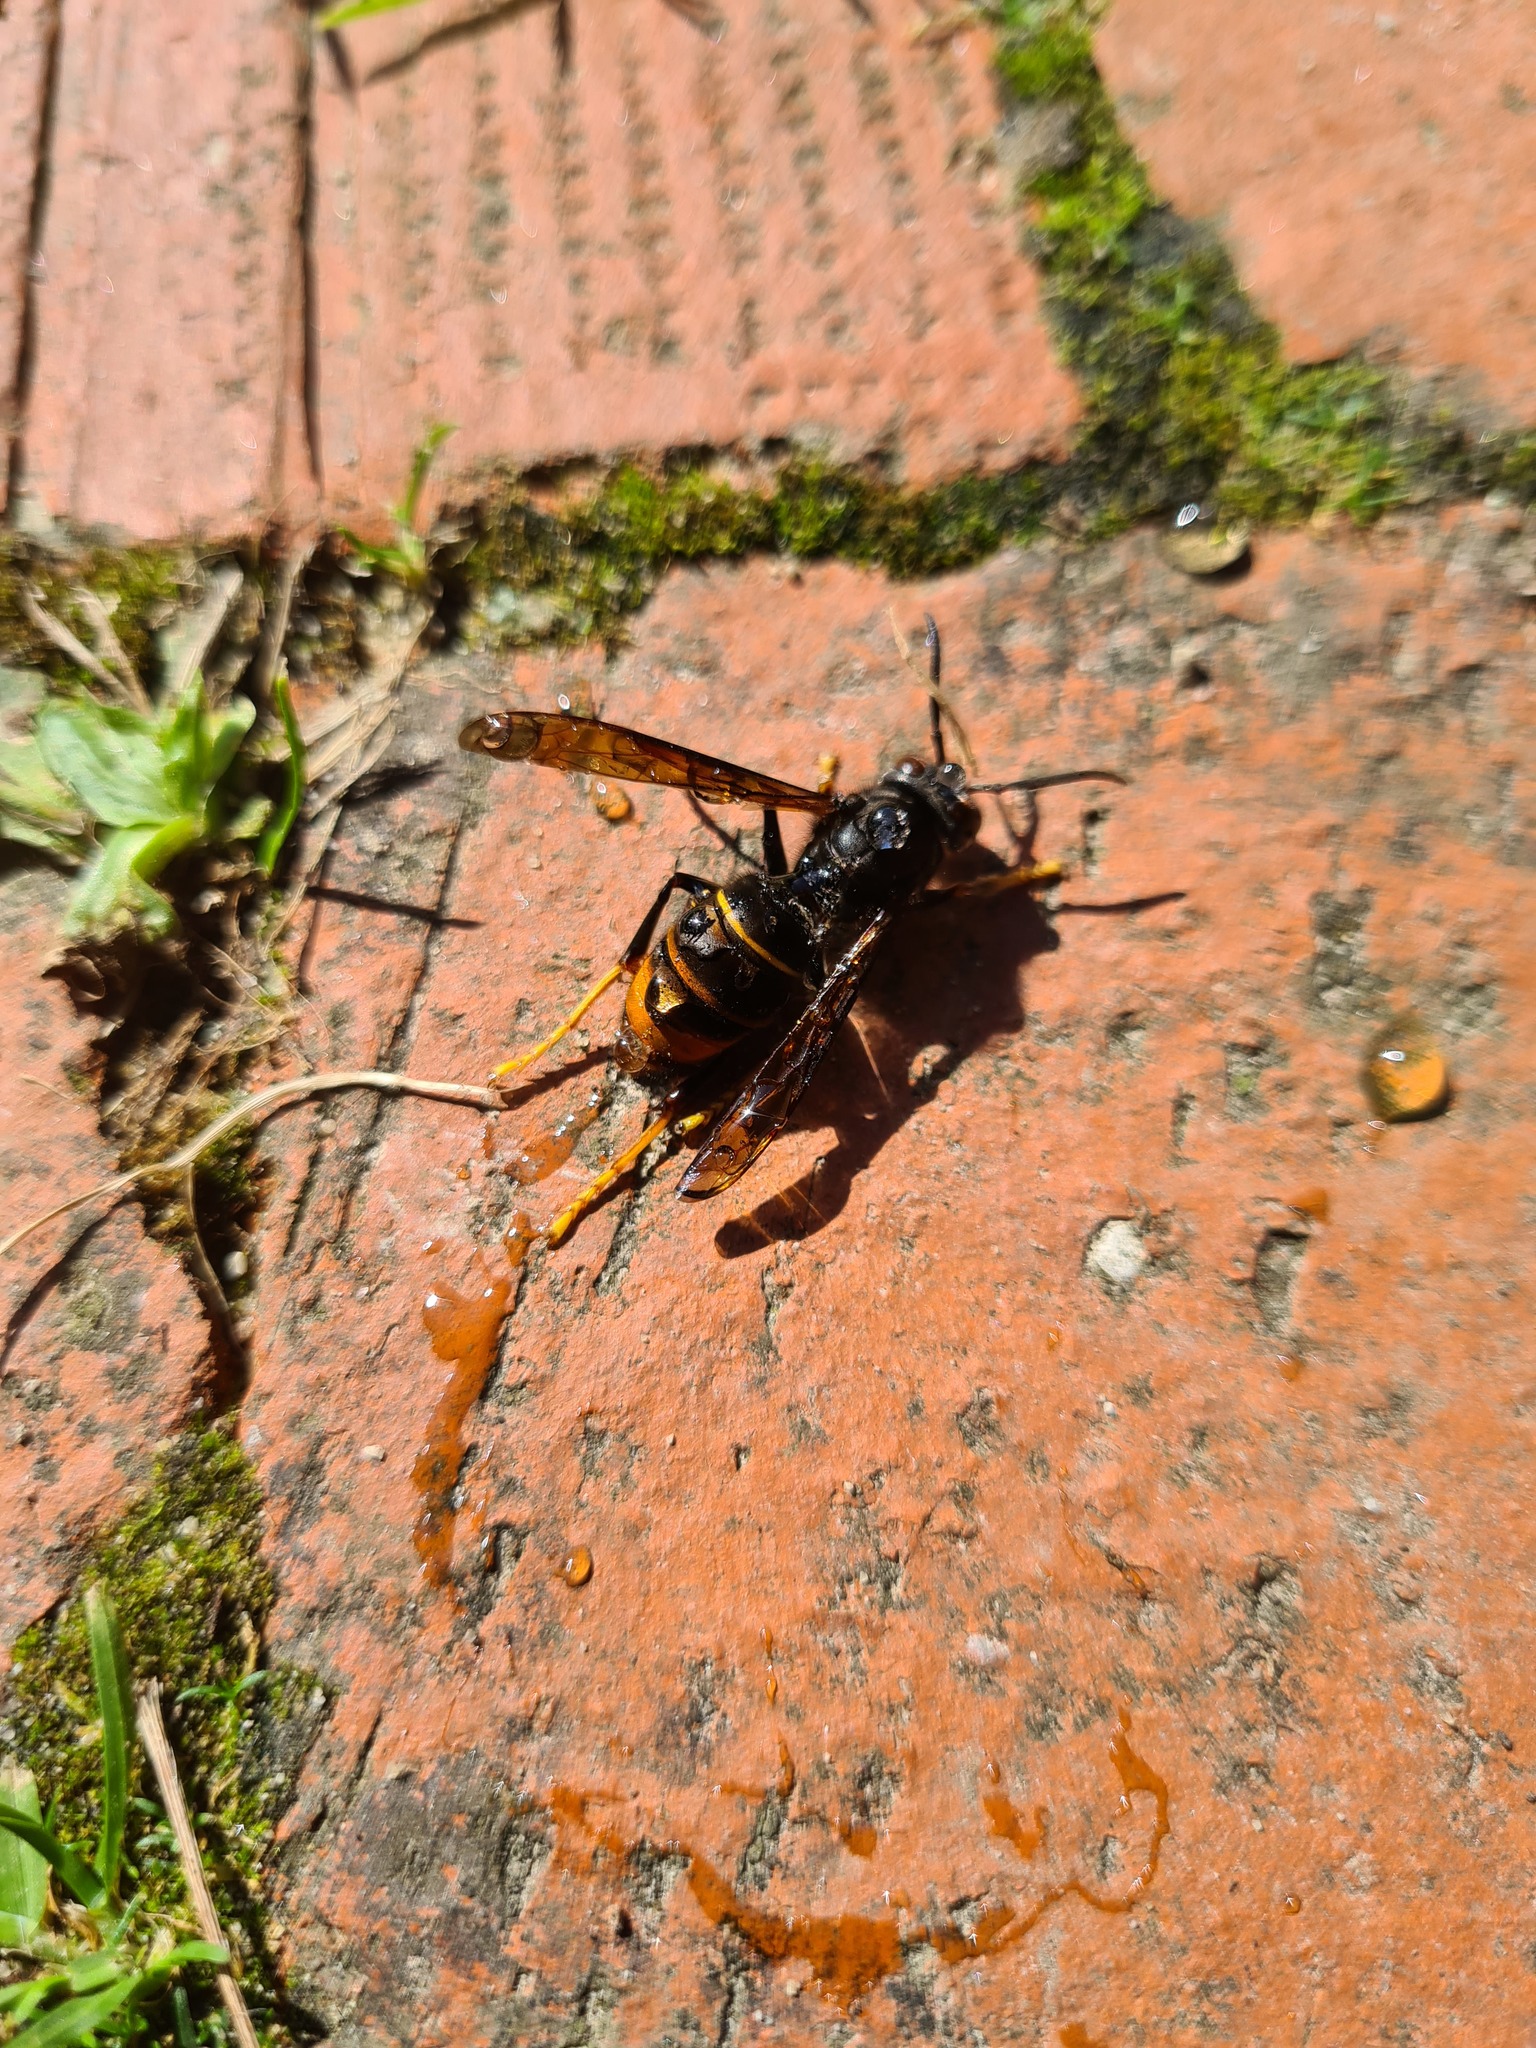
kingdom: Animalia
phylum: Arthropoda
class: Insecta
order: Hymenoptera
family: Vespidae
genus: Vespa
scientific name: Vespa velutina
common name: Asian hornet
